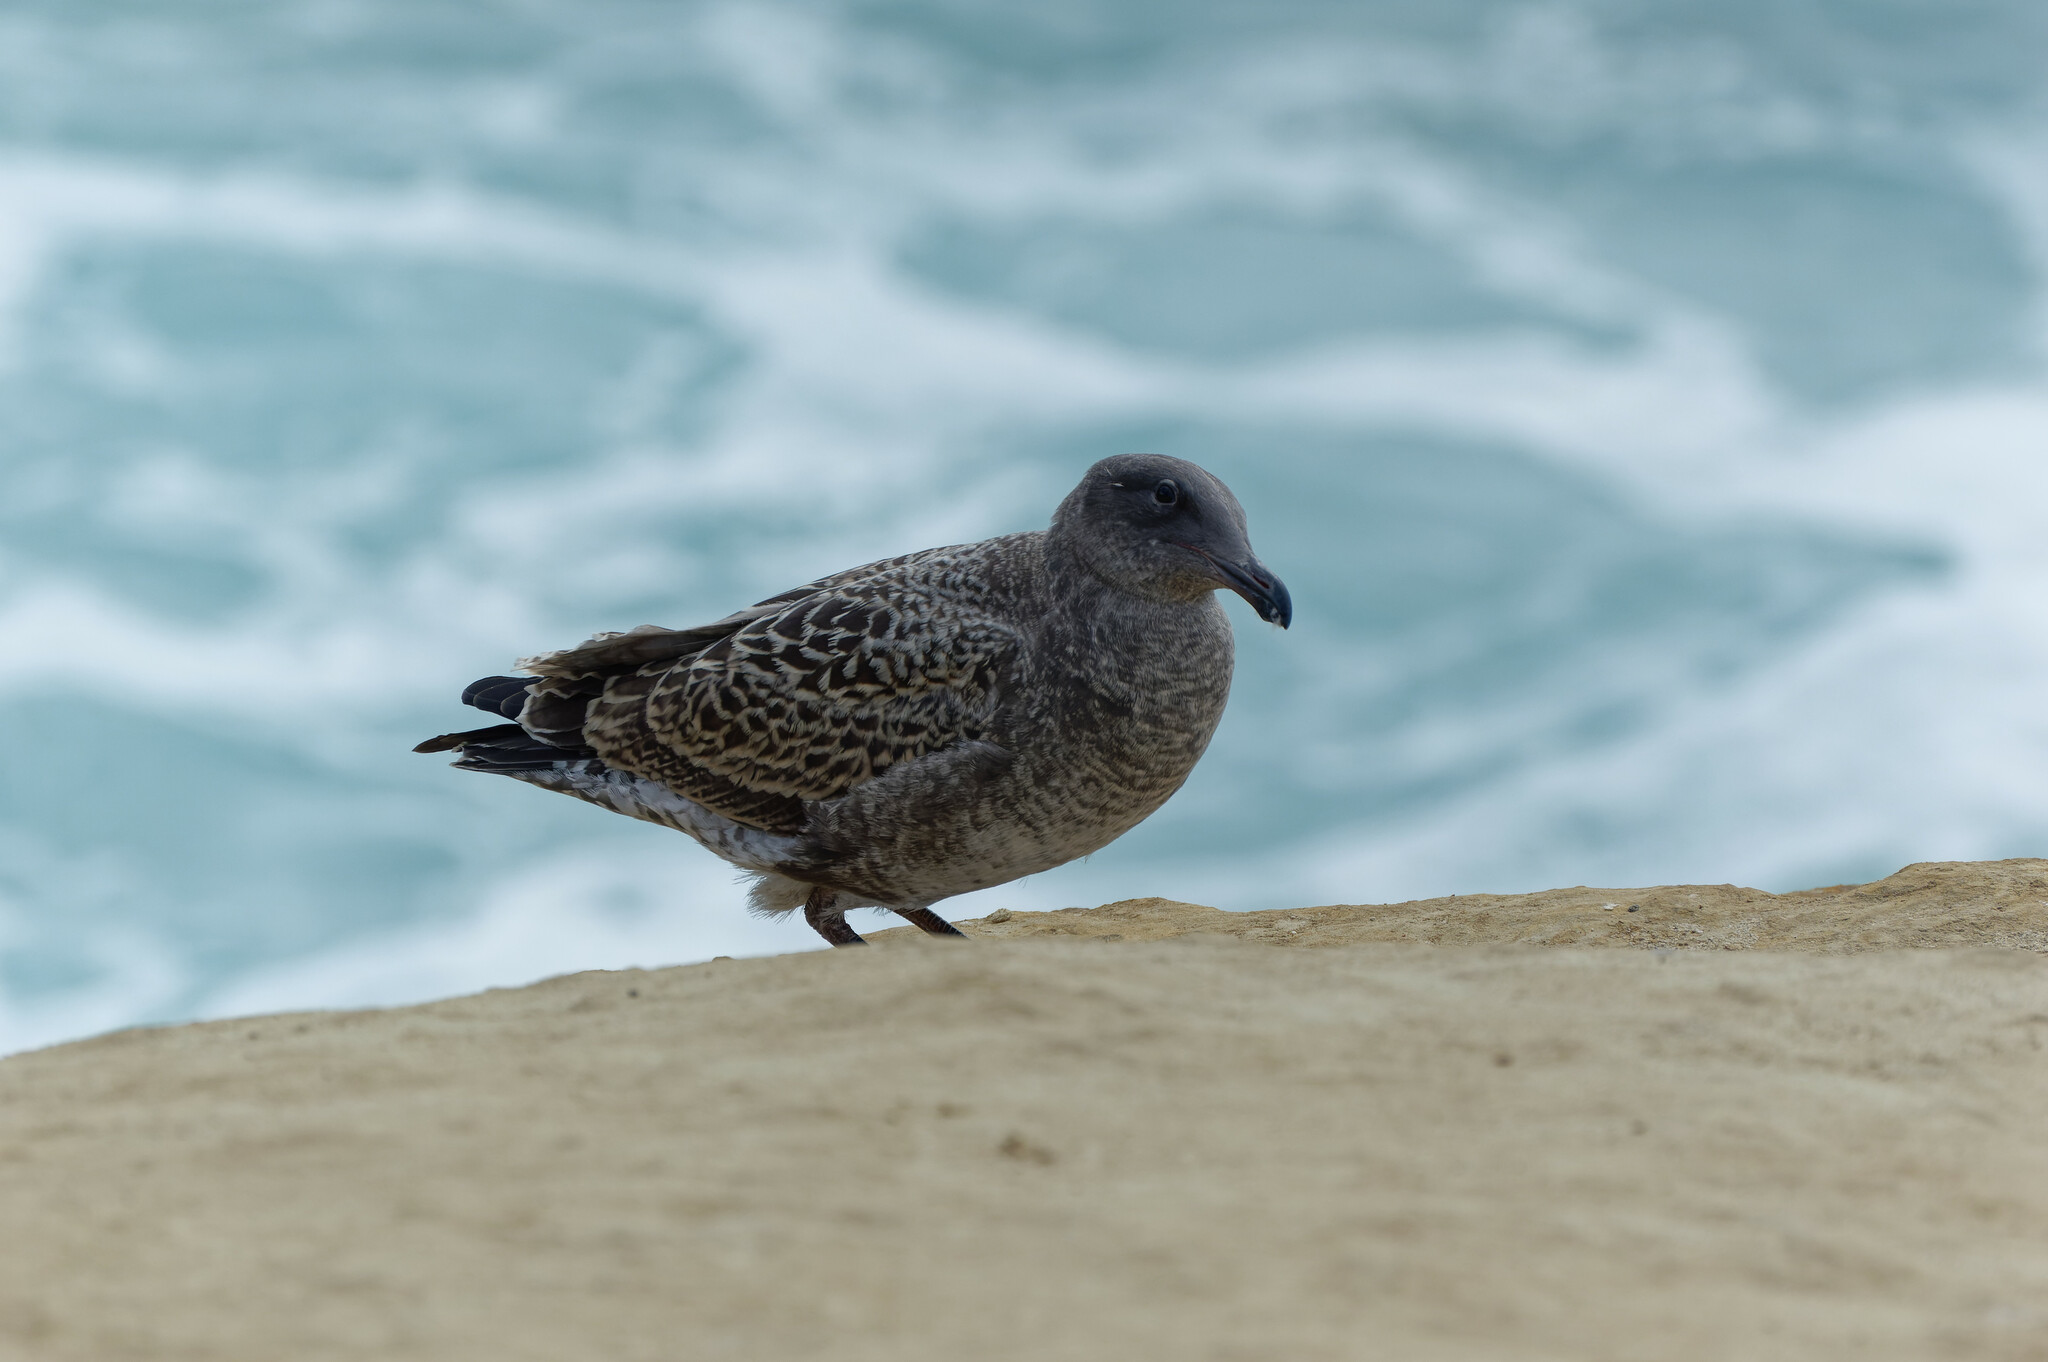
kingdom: Animalia
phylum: Chordata
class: Aves
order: Charadriiformes
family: Laridae
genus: Larus
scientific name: Larus occidentalis
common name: Western gull
